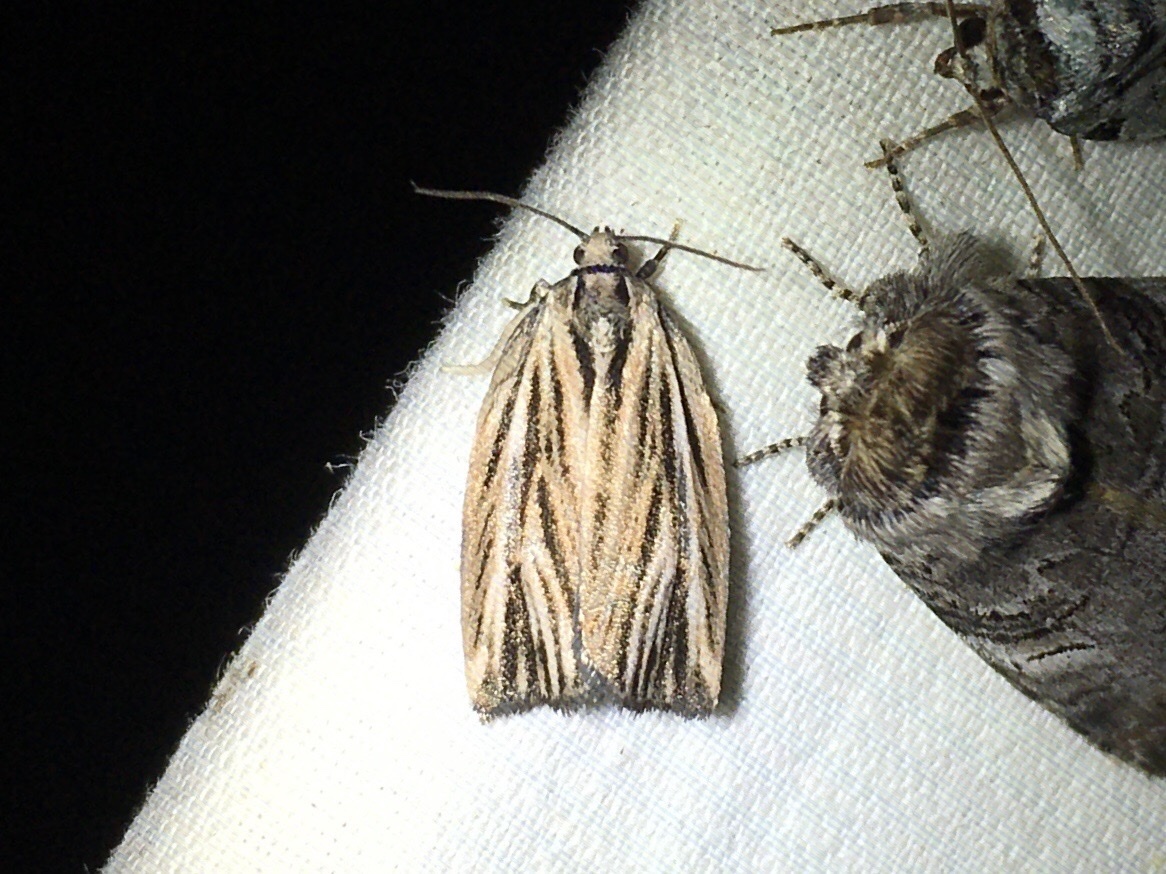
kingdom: Animalia
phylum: Arthropoda
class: Insecta
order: Lepidoptera
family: Tortricidae
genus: Archips
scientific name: Archips strianus
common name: Striated tortrix moth
